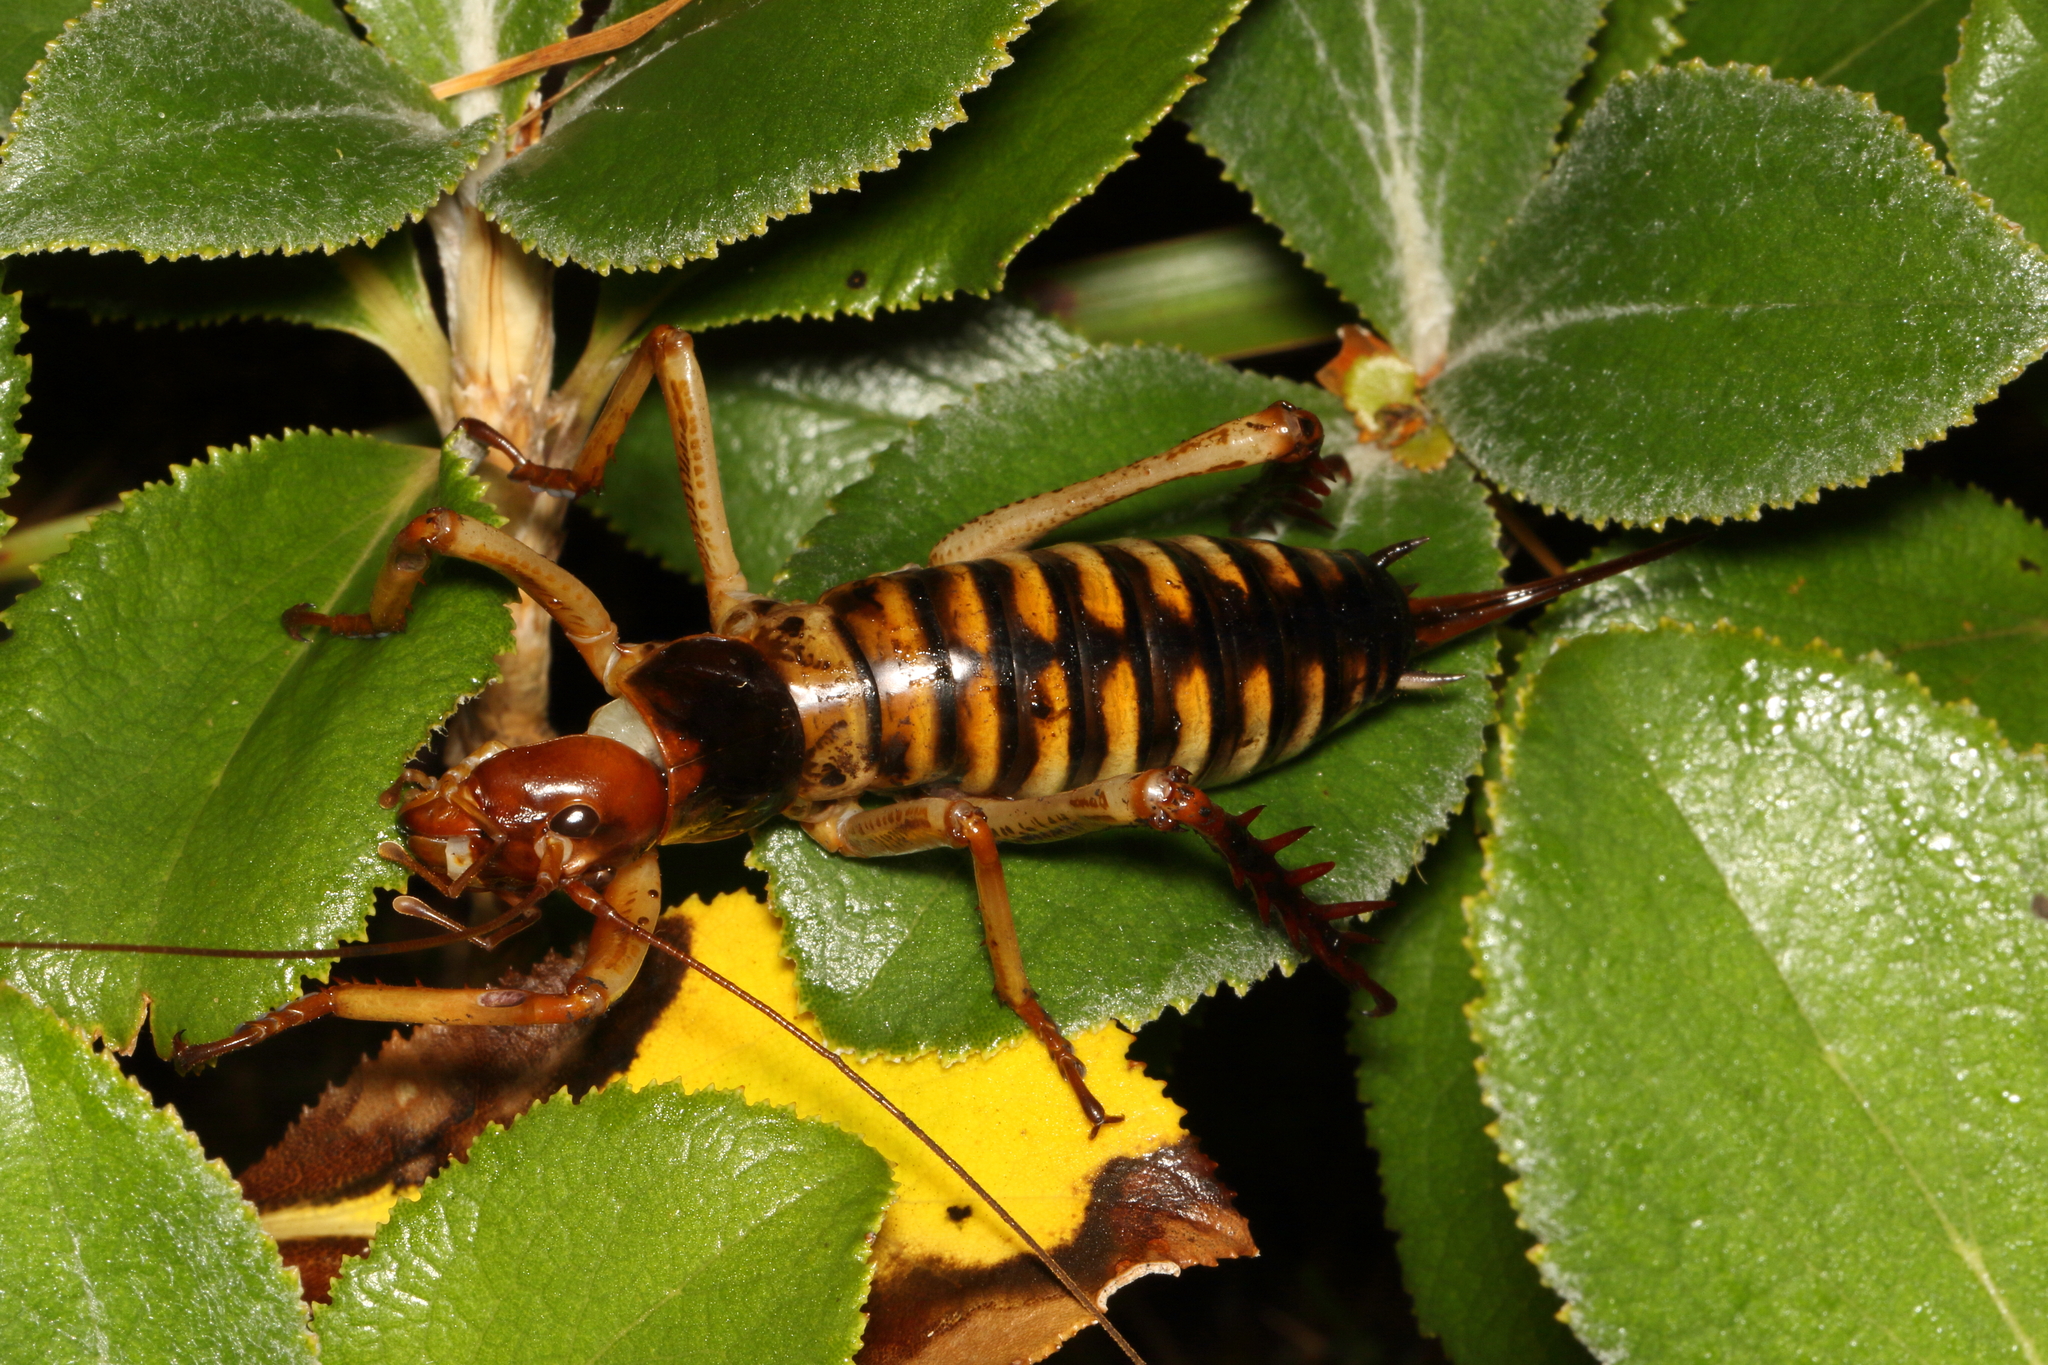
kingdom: Animalia
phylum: Arthropoda
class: Insecta
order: Orthoptera
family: Anostostomatidae
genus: Hemideina
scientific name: Hemideina crassidens
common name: Wellington tree weta
